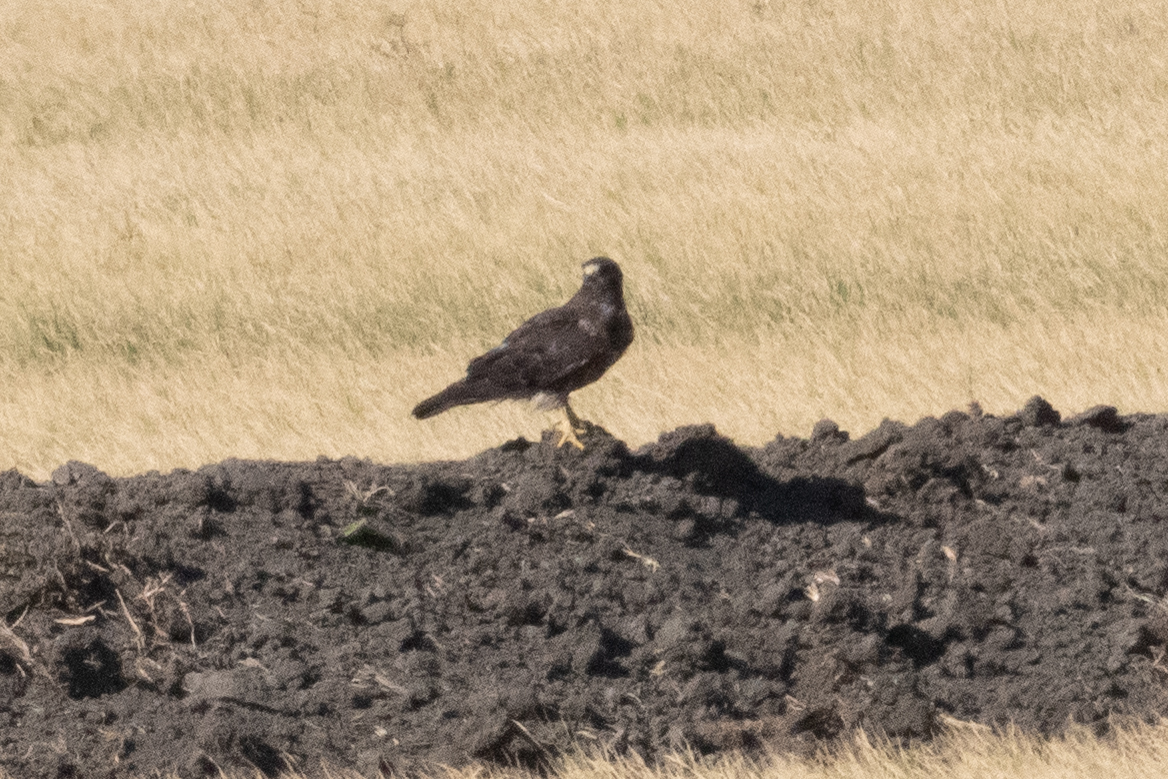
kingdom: Animalia
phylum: Chordata
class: Aves
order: Accipitriformes
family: Accipitridae
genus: Buteo
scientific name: Buteo swainsoni
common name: Swainson's hawk
